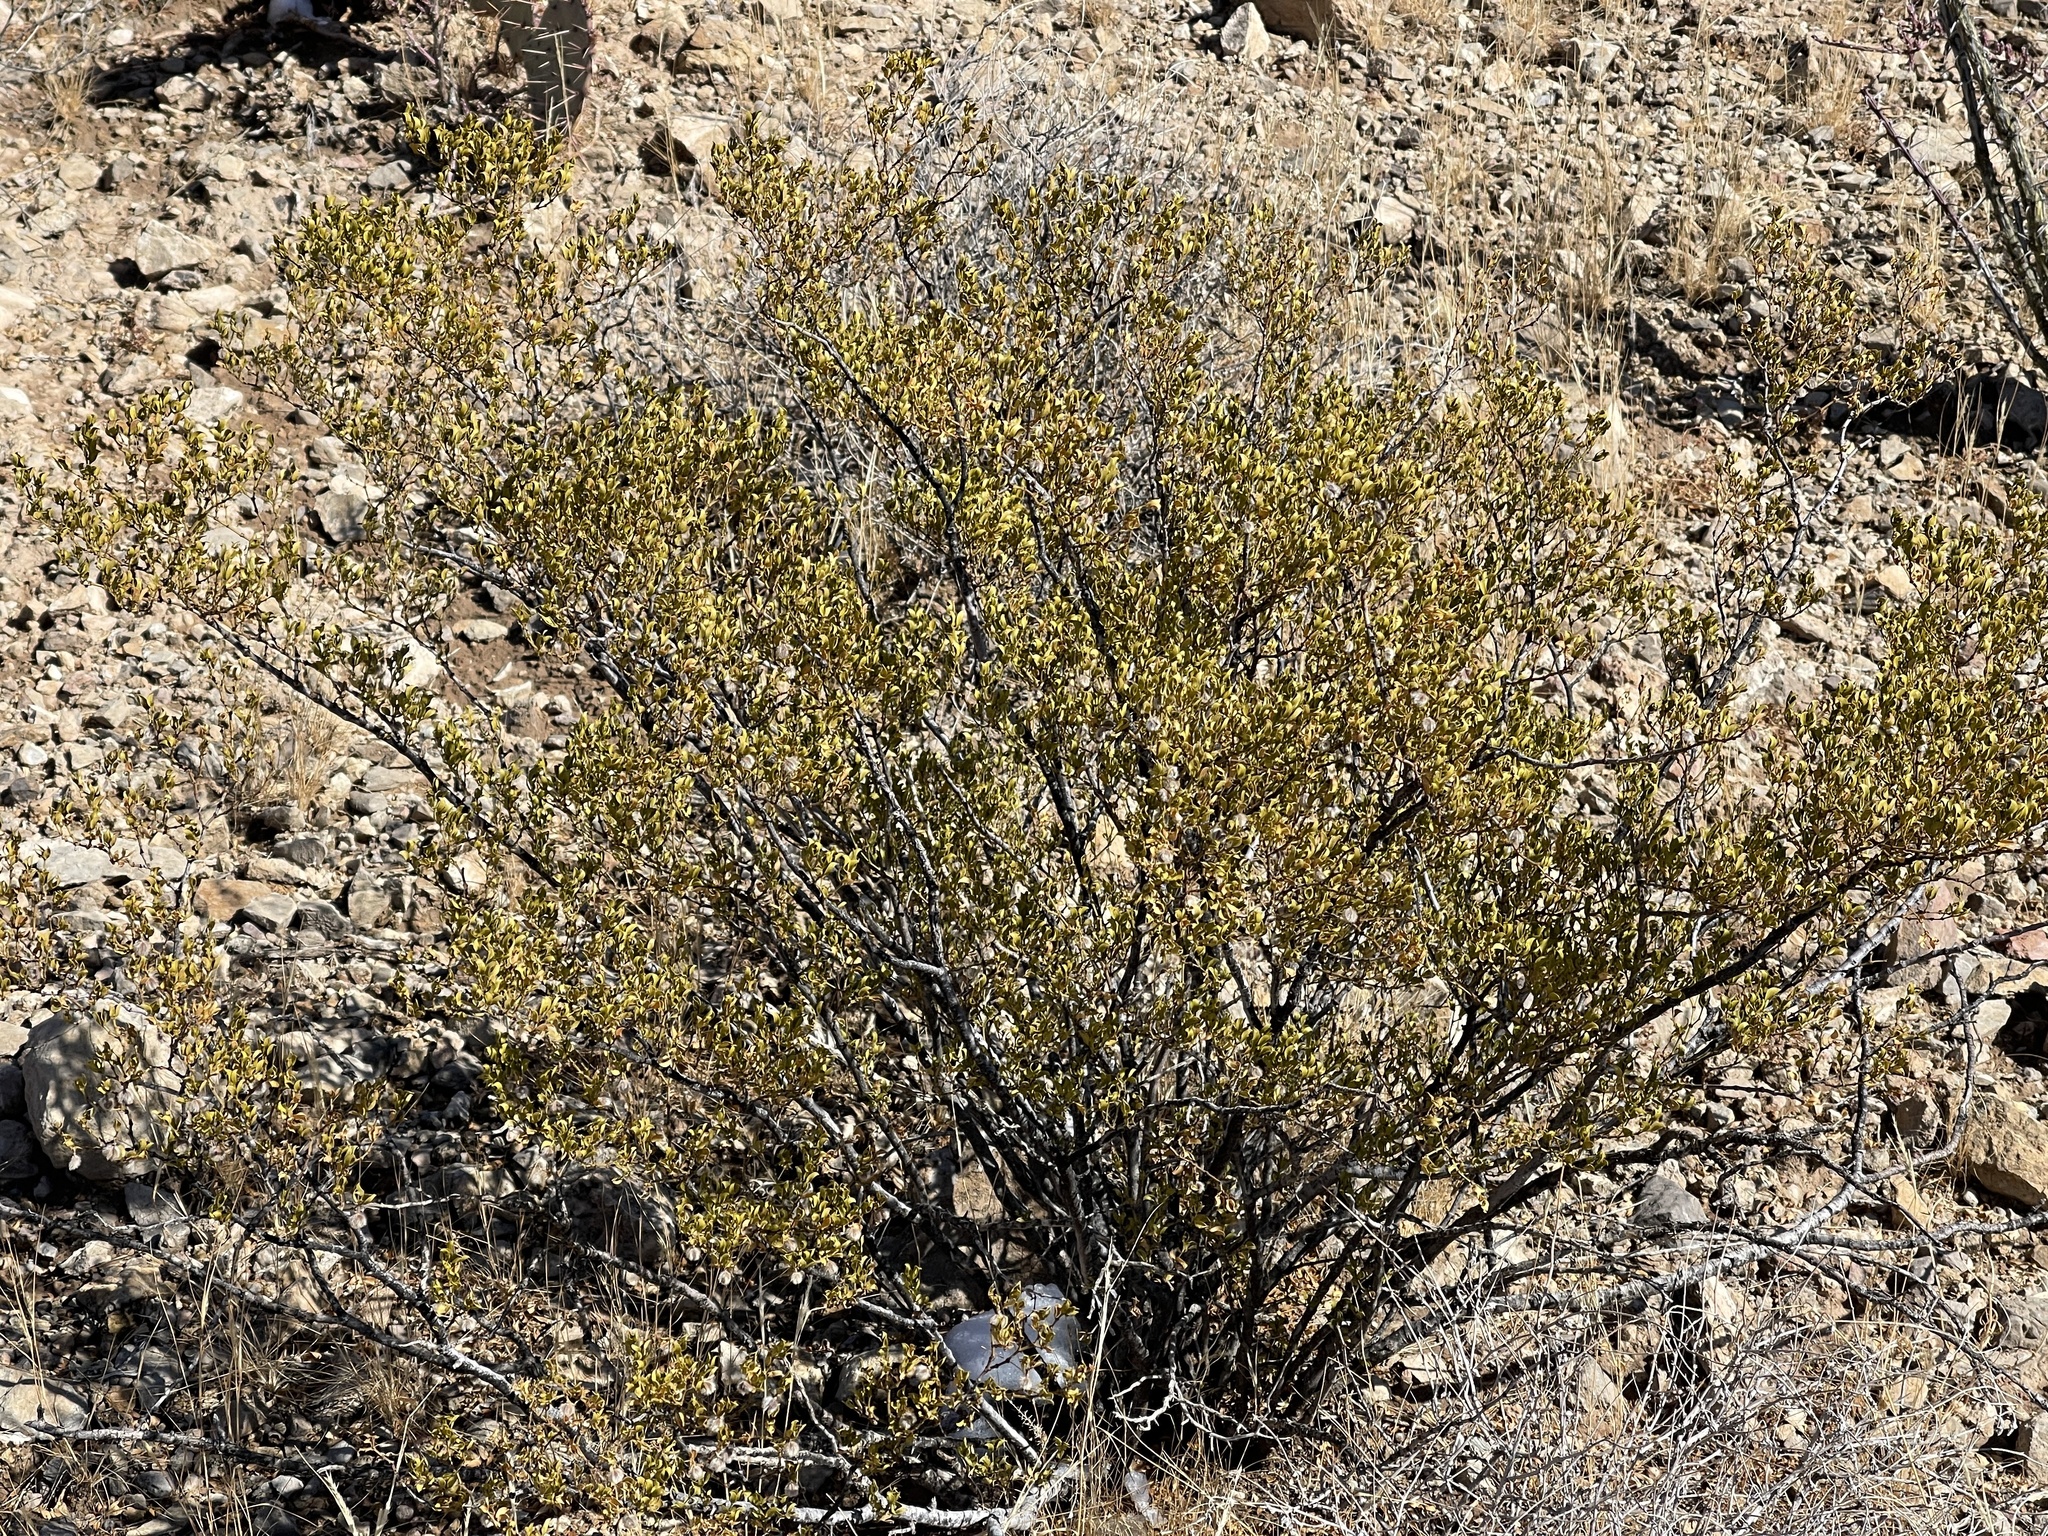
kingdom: Plantae
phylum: Tracheophyta
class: Magnoliopsida
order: Zygophyllales
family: Zygophyllaceae
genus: Larrea
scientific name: Larrea tridentata
